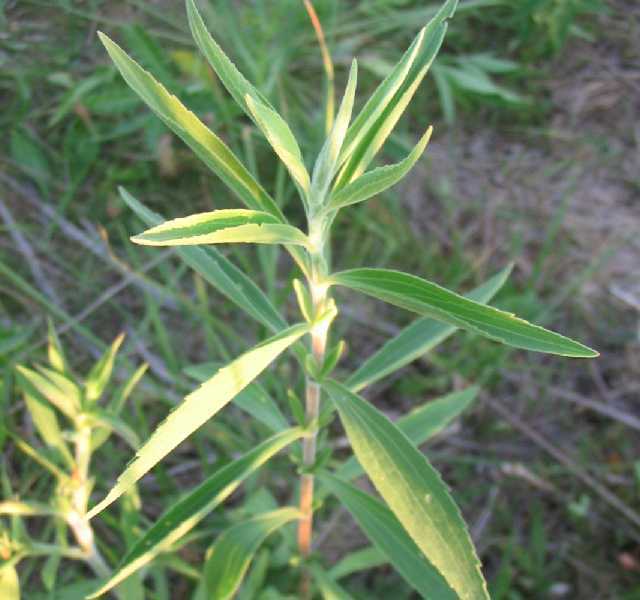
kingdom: Plantae
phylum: Tracheophyta
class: Magnoliopsida
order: Asterales
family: Asteraceae
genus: Eupatorium
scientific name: Eupatorium altissimum
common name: Tall thoroughwort
